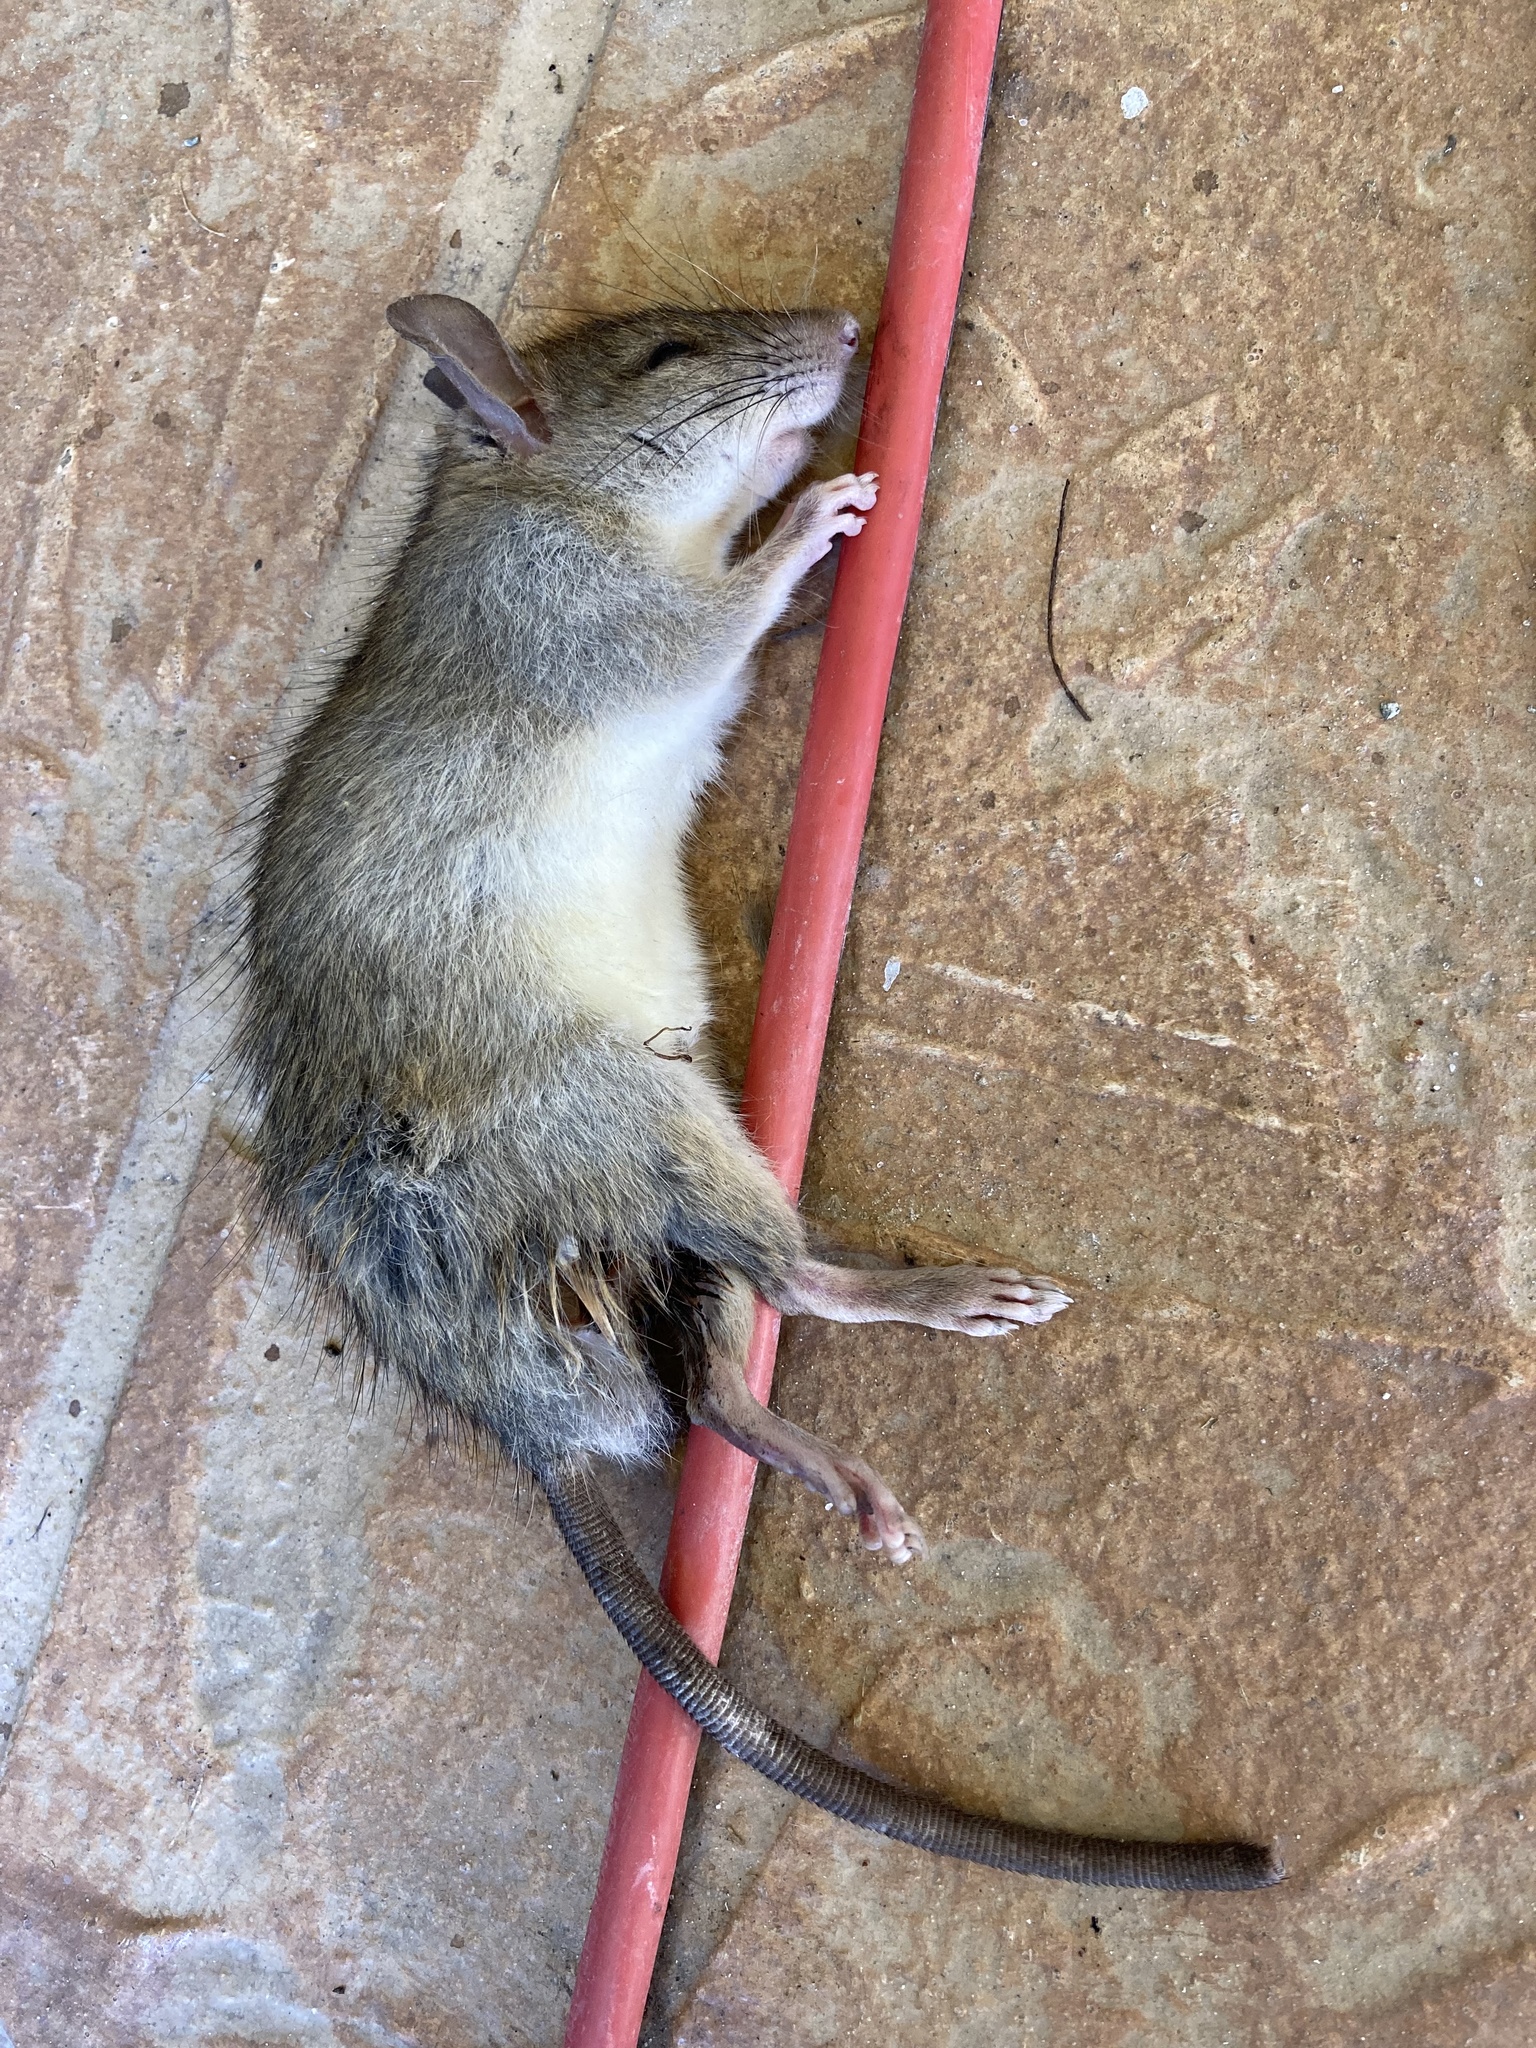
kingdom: Animalia
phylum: Chordata
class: Mammalia
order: Rodentia
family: Muridae
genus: Rattus
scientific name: Rattus rattus
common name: Black rat
